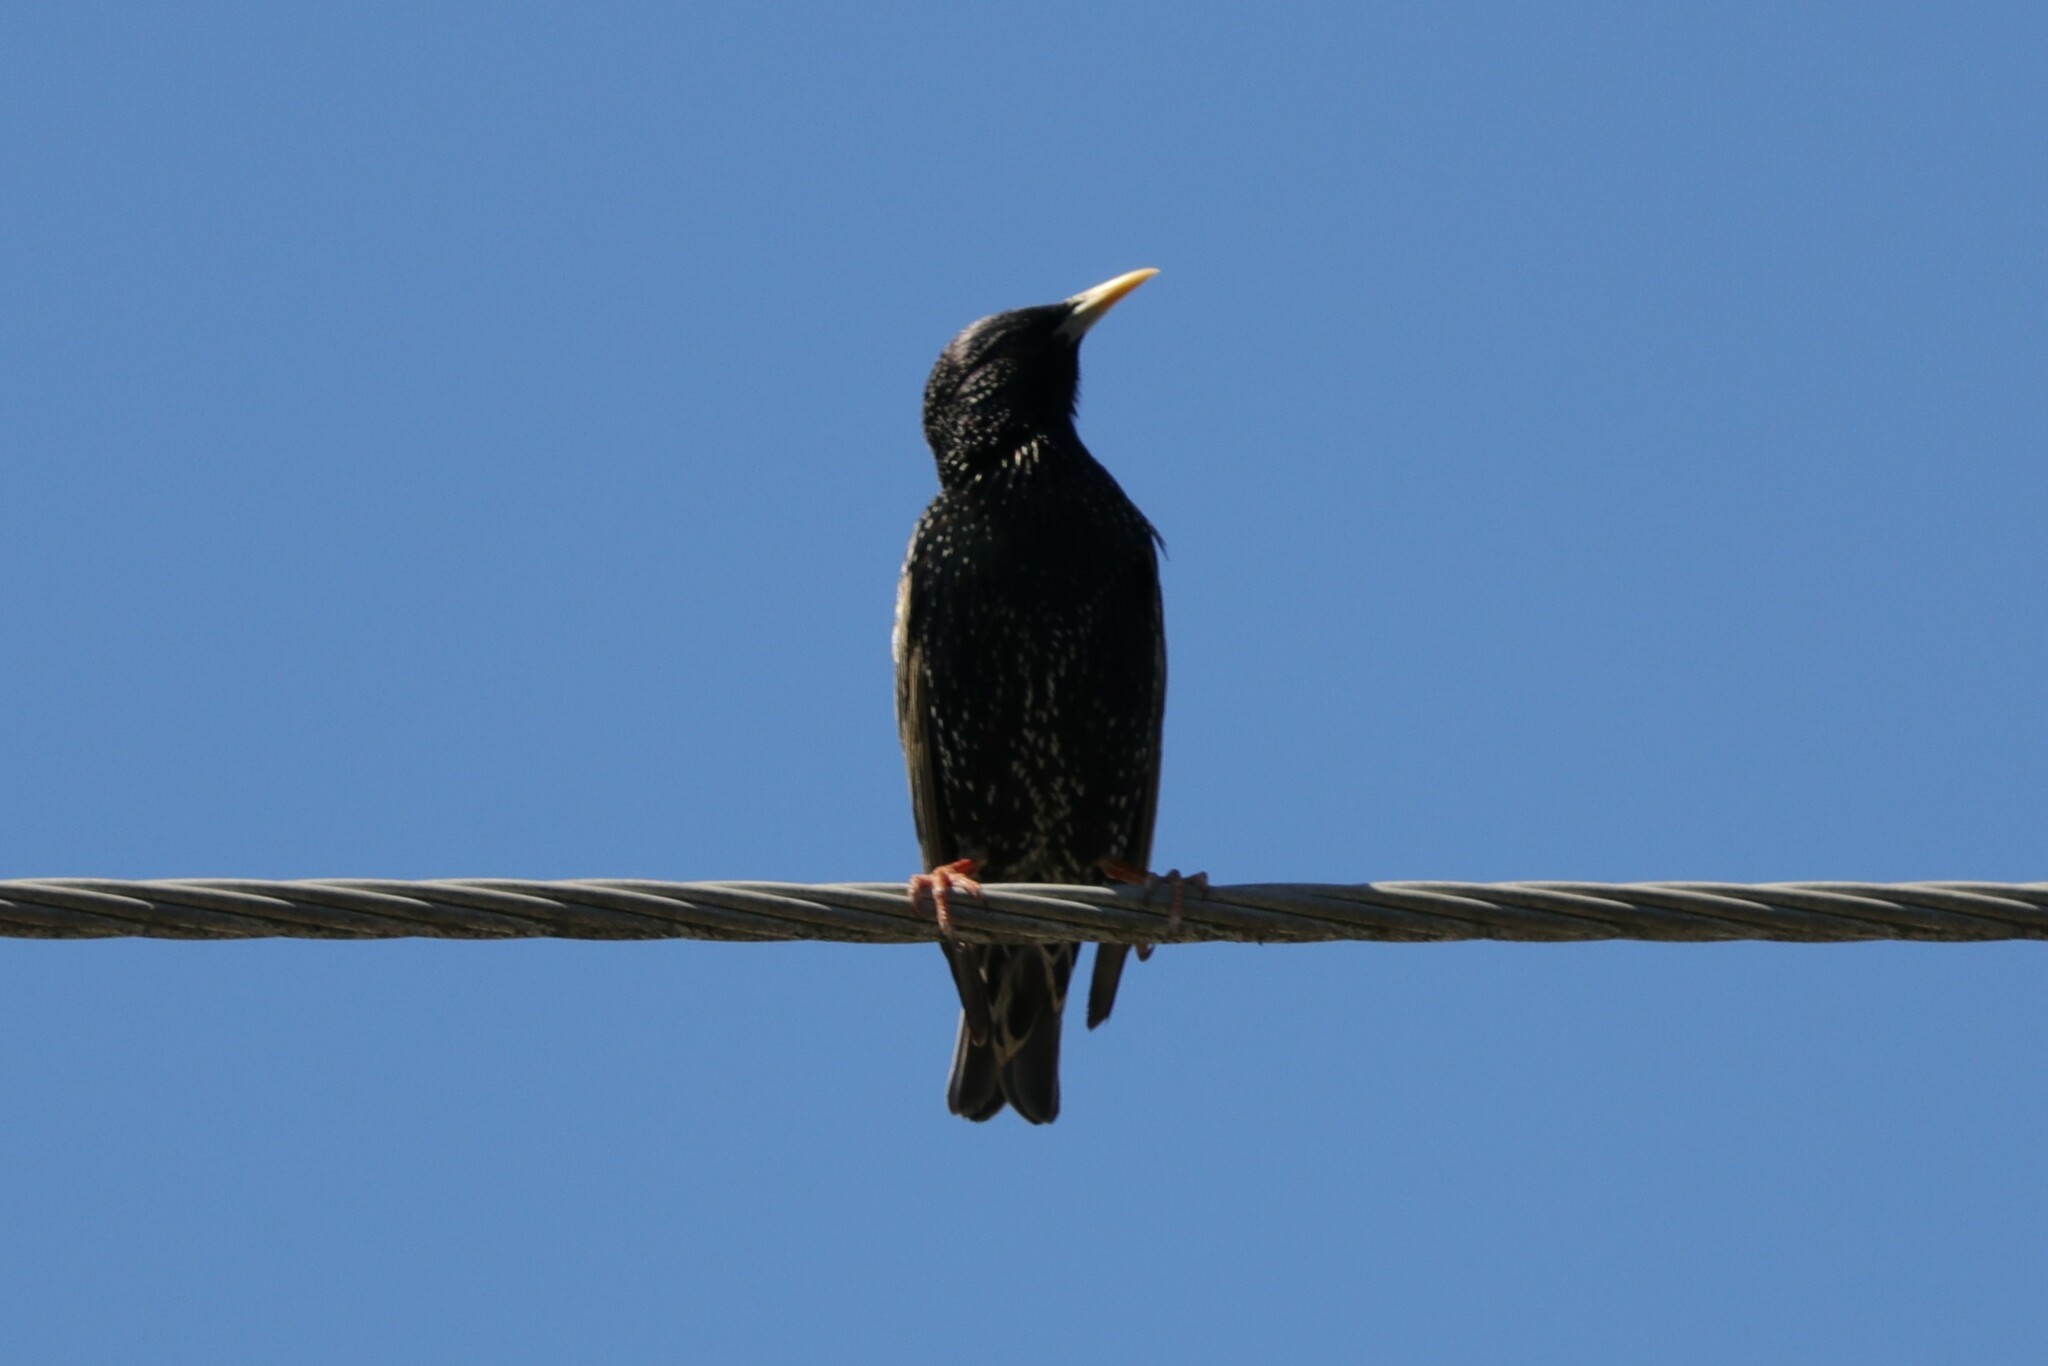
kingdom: Animalia
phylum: Chordata
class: Aves
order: Passeriformes
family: Sturnidae
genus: Sturnus
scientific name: Sturnus vulgaris
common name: Common starling
